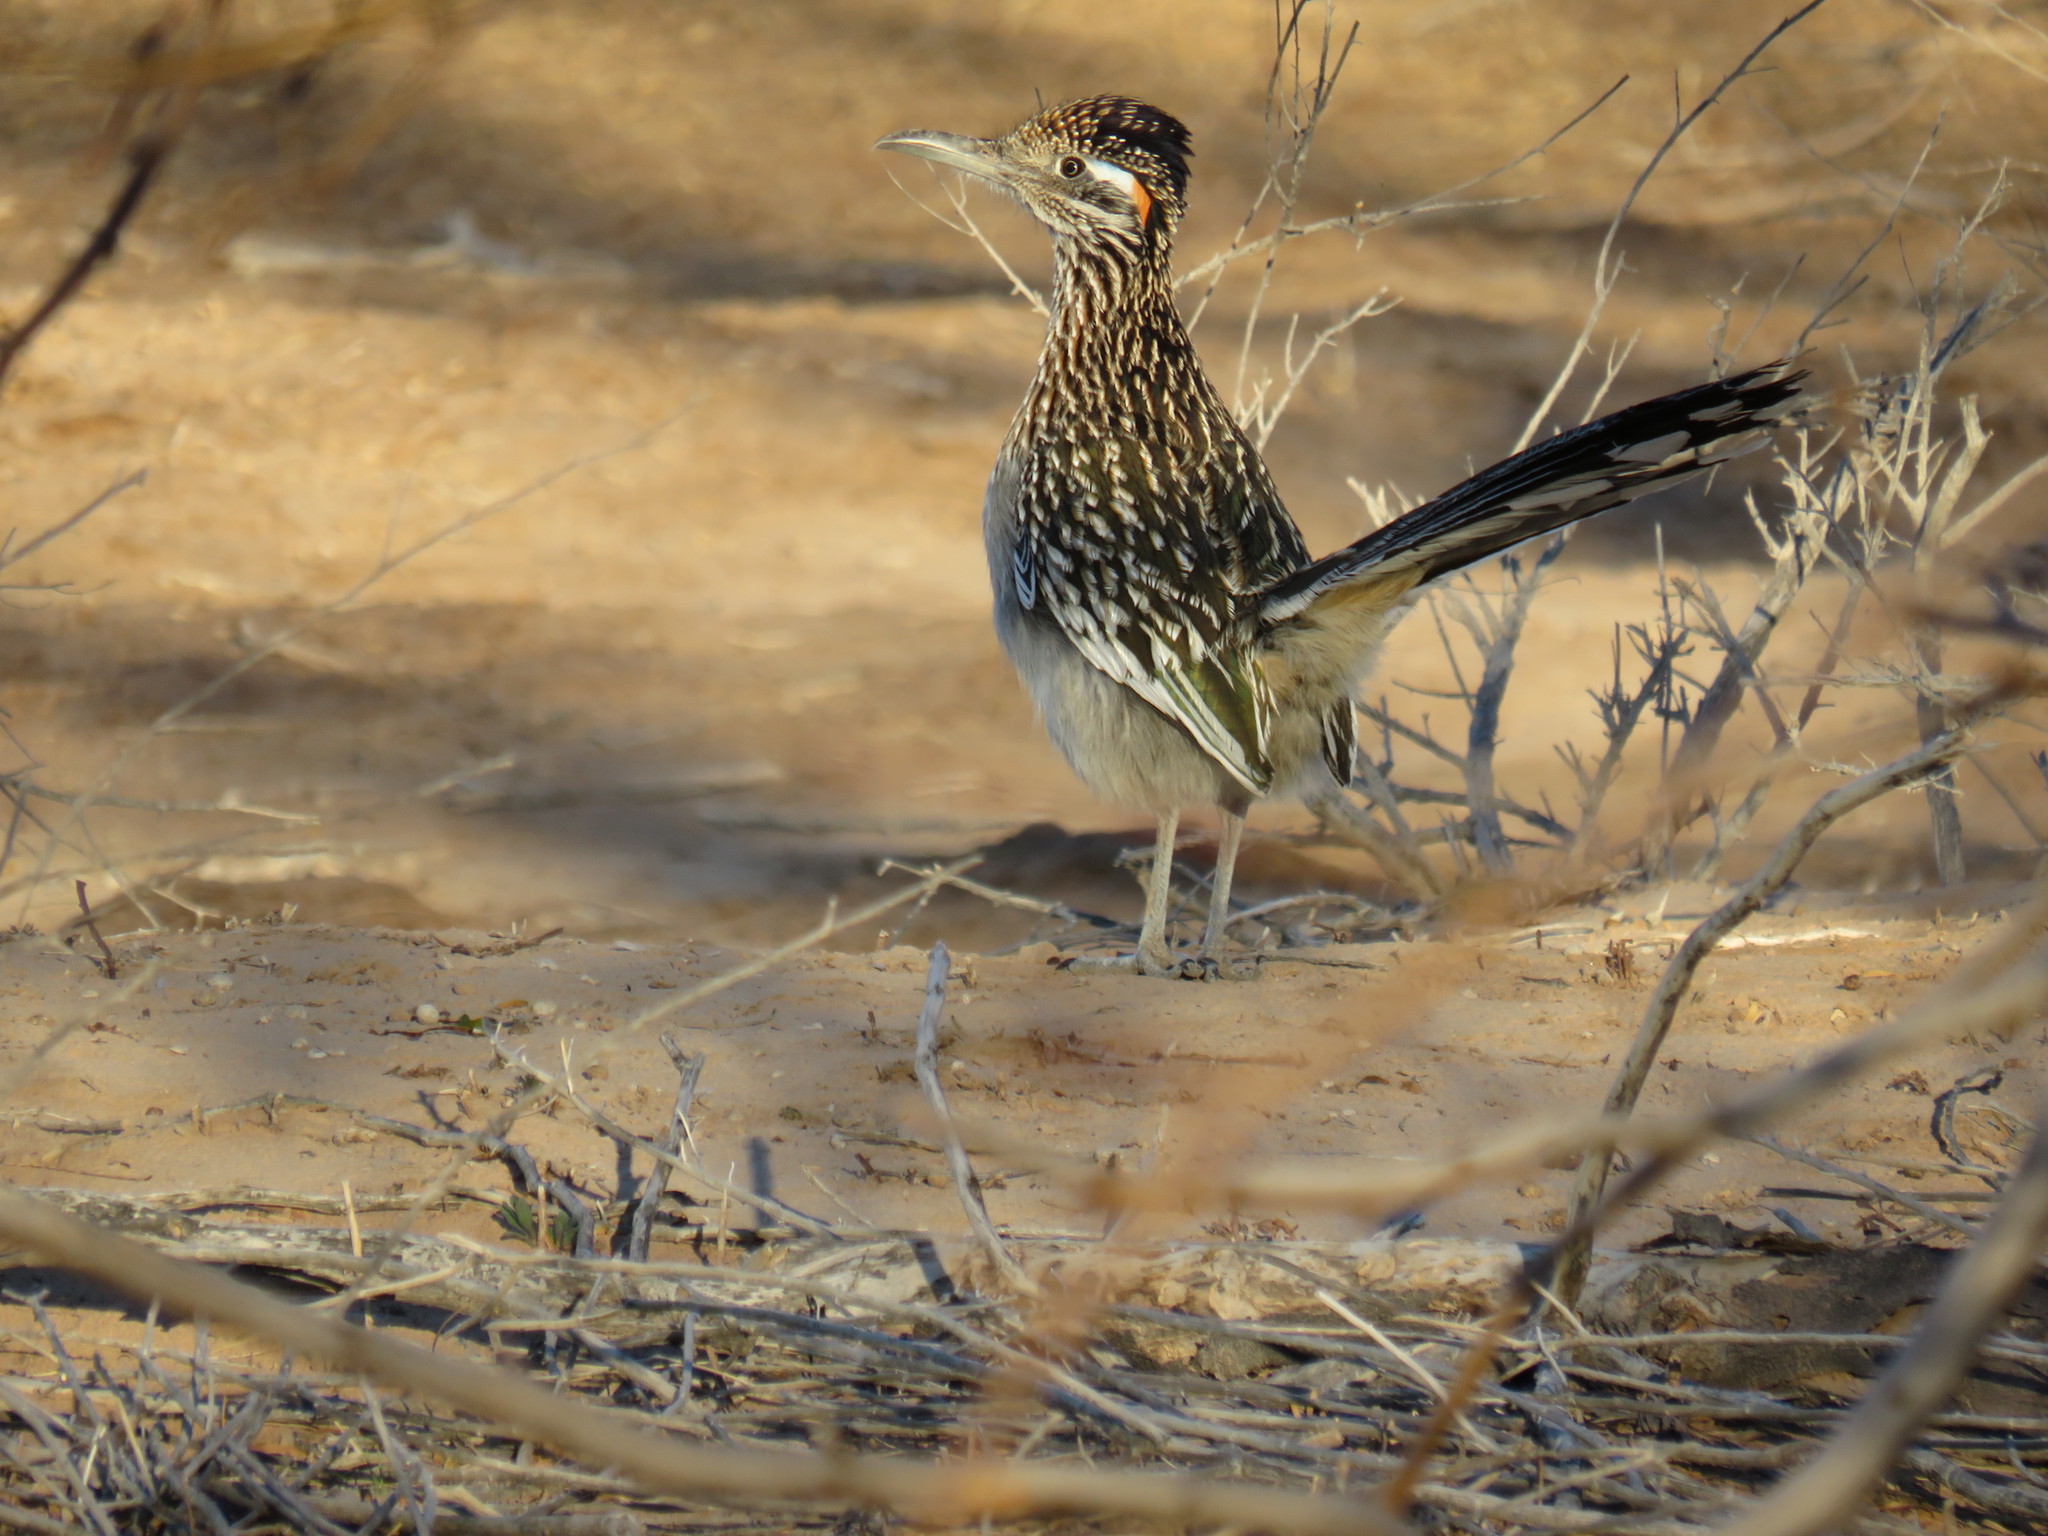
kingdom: Animalia
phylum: Chordata
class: Aves
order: Cuculiformes
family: Cuculidae
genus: Geococcyx
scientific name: Geococcyx californianus
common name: Greater roadrunner
